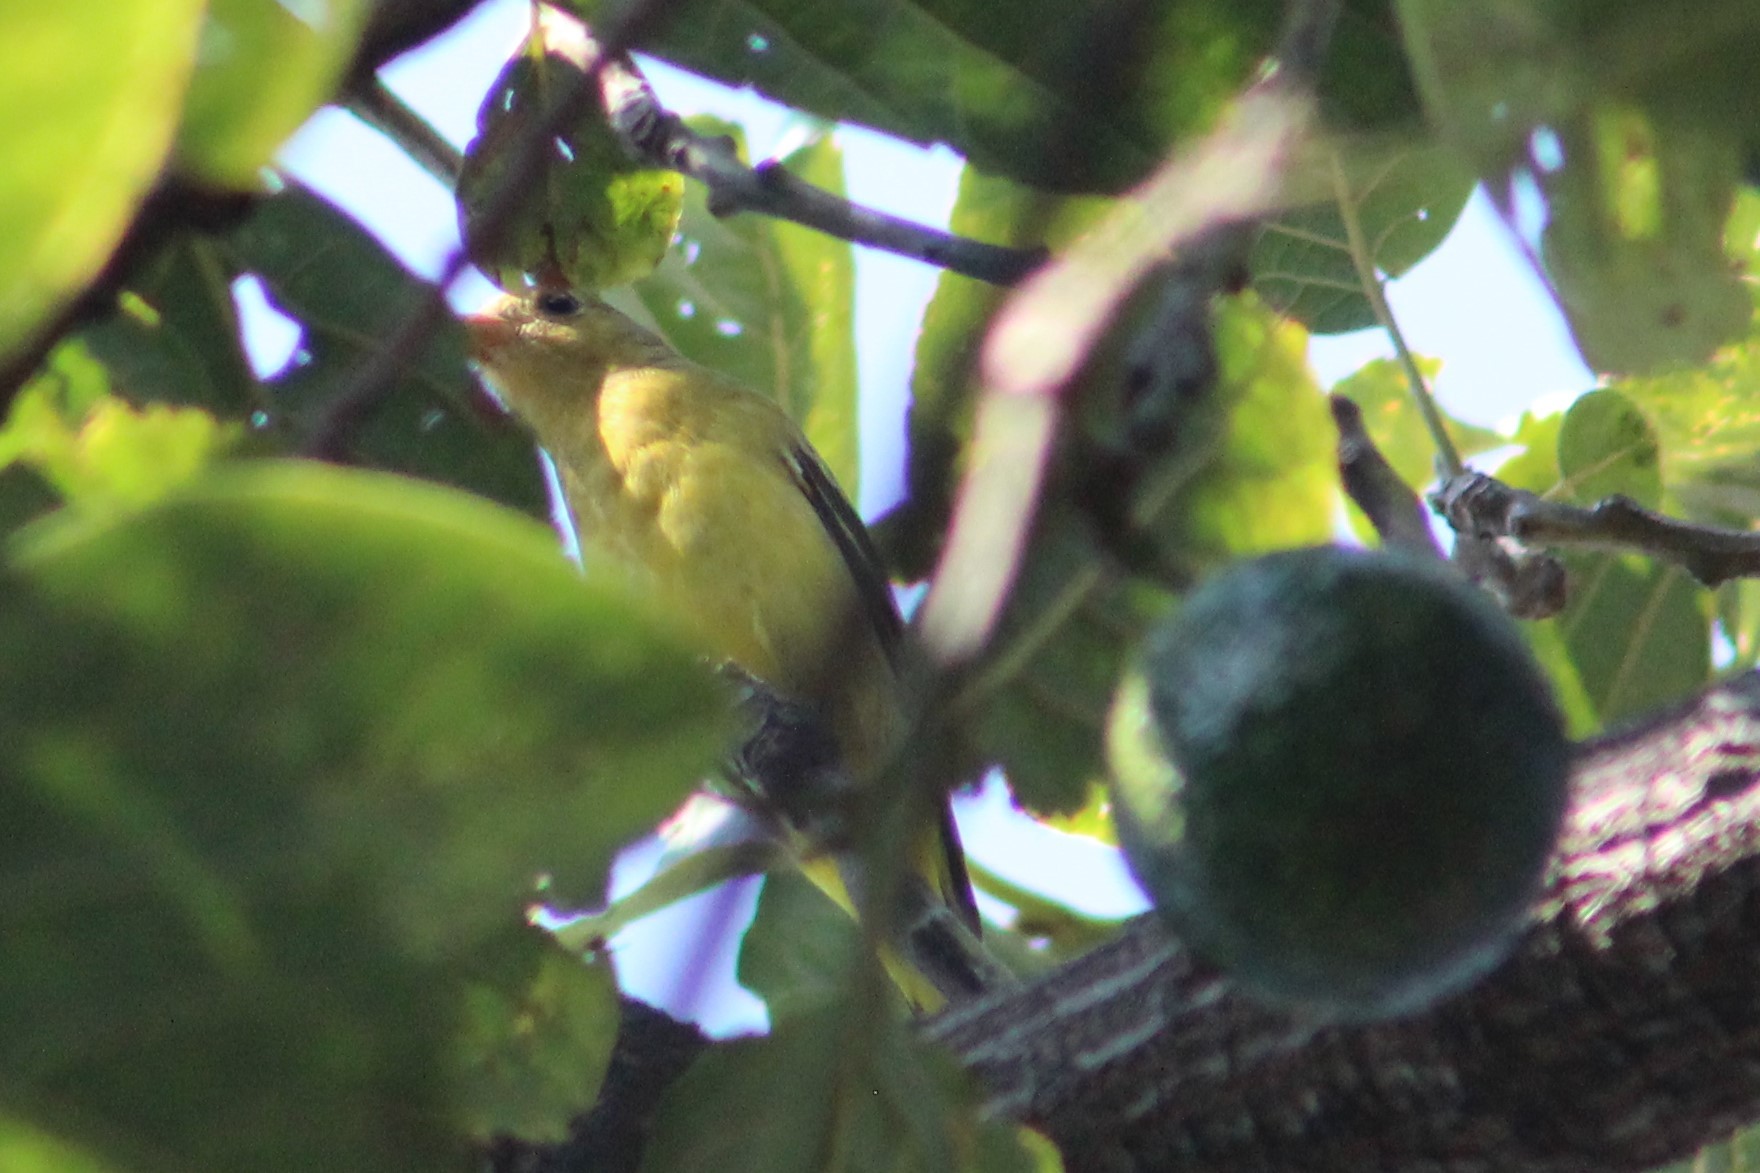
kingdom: Animalia
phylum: Chordata
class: Aves
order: Passeriformes
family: Cardinalidae
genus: Piranga
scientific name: Piranga ludoviciana
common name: Western tanager
